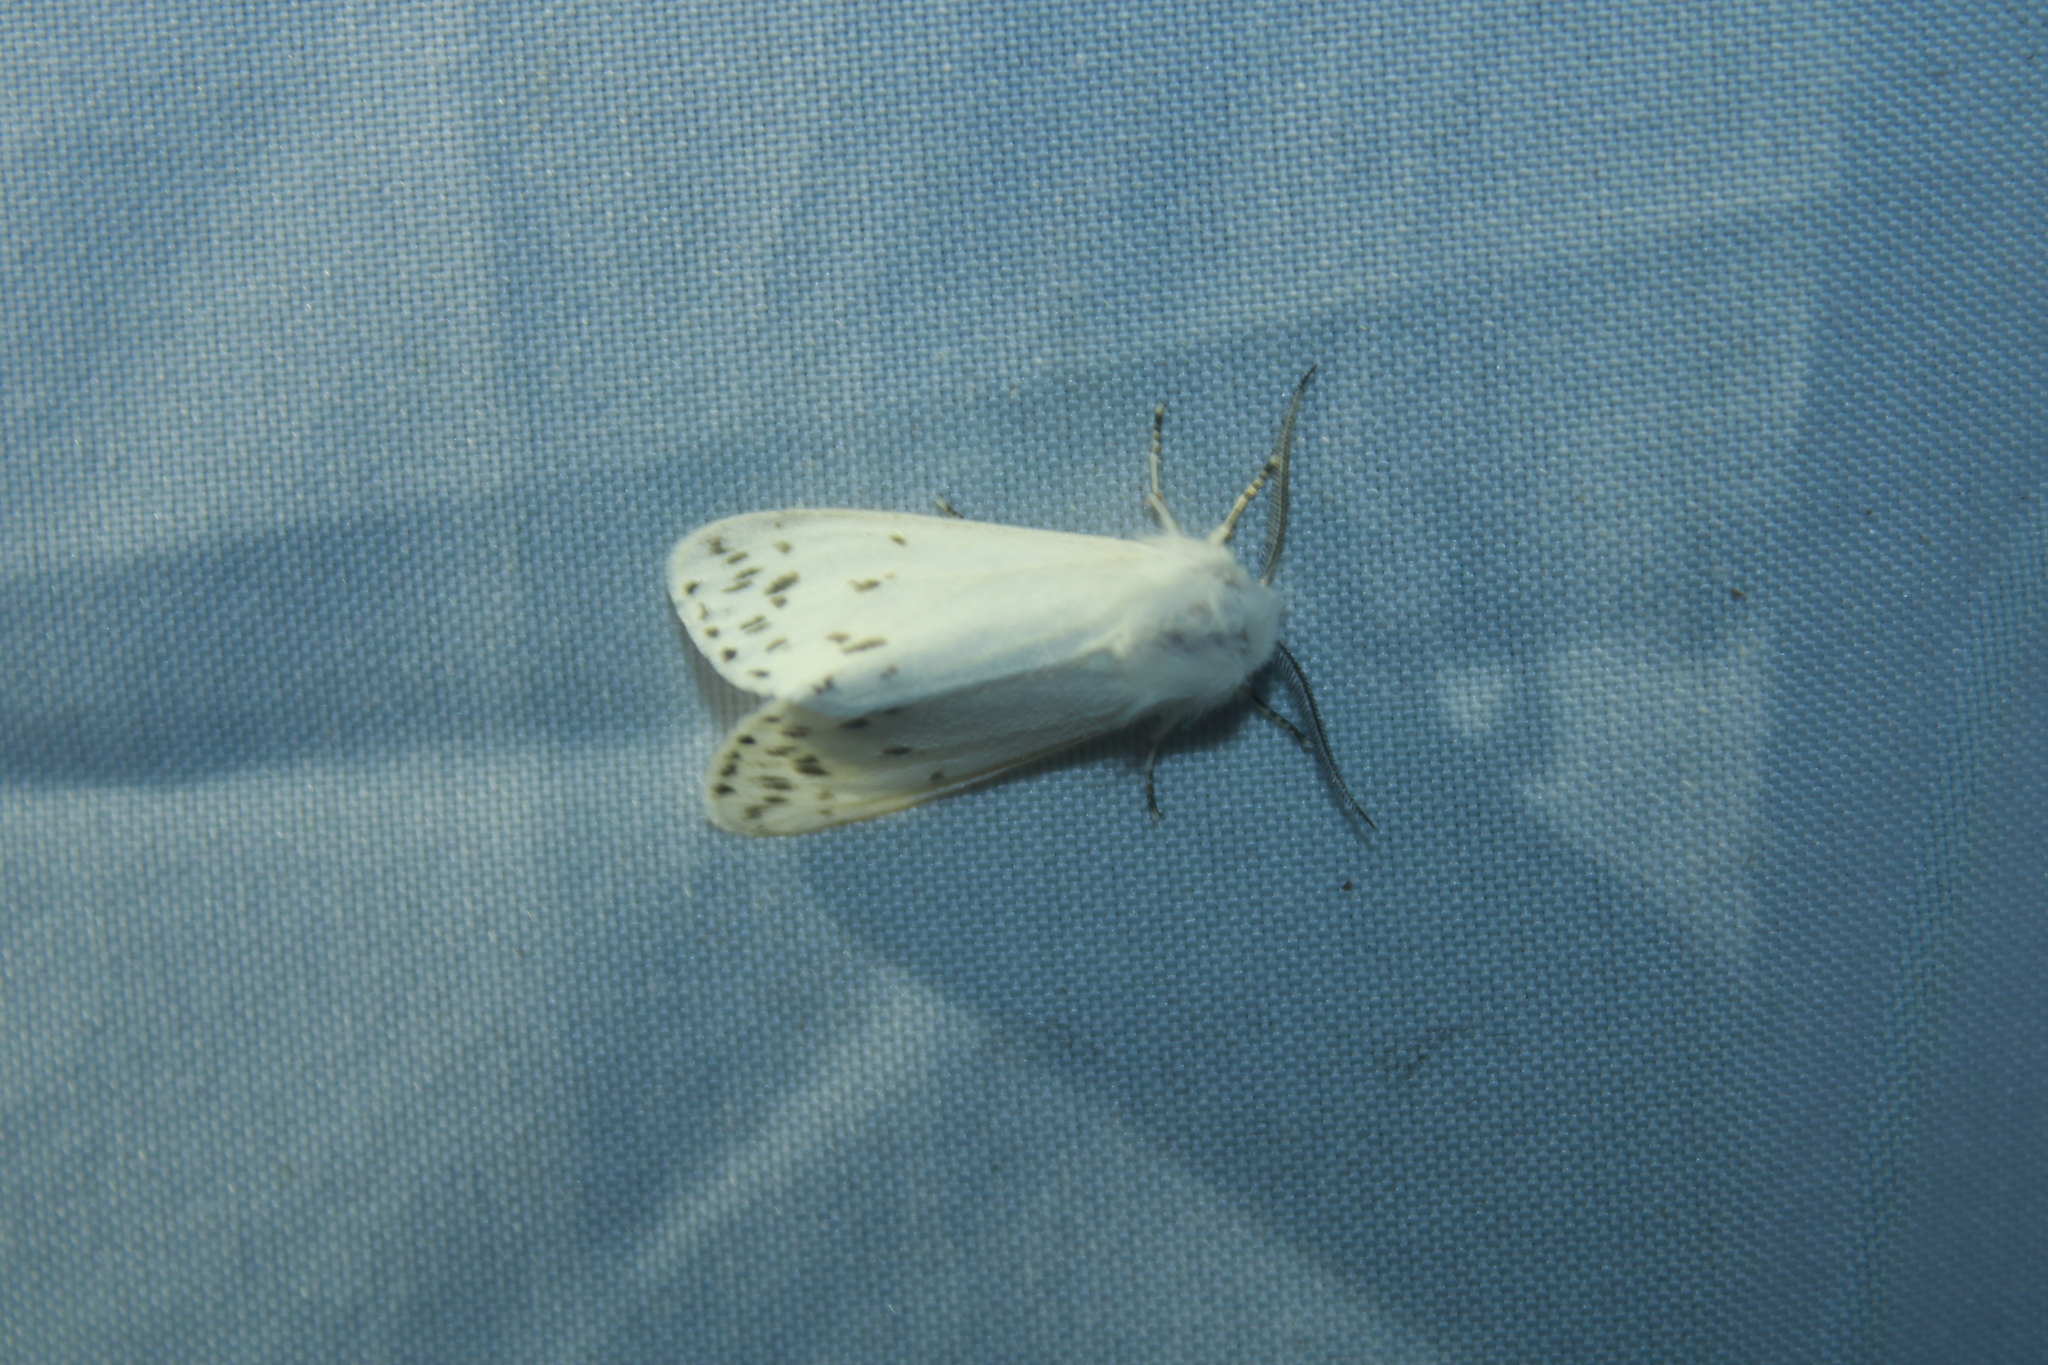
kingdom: Animalia
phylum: Arthropoda
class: Insecta
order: Lepidoptera
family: Erebidae
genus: Hyphantria
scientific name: Hyphantria cunea
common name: American white moth
